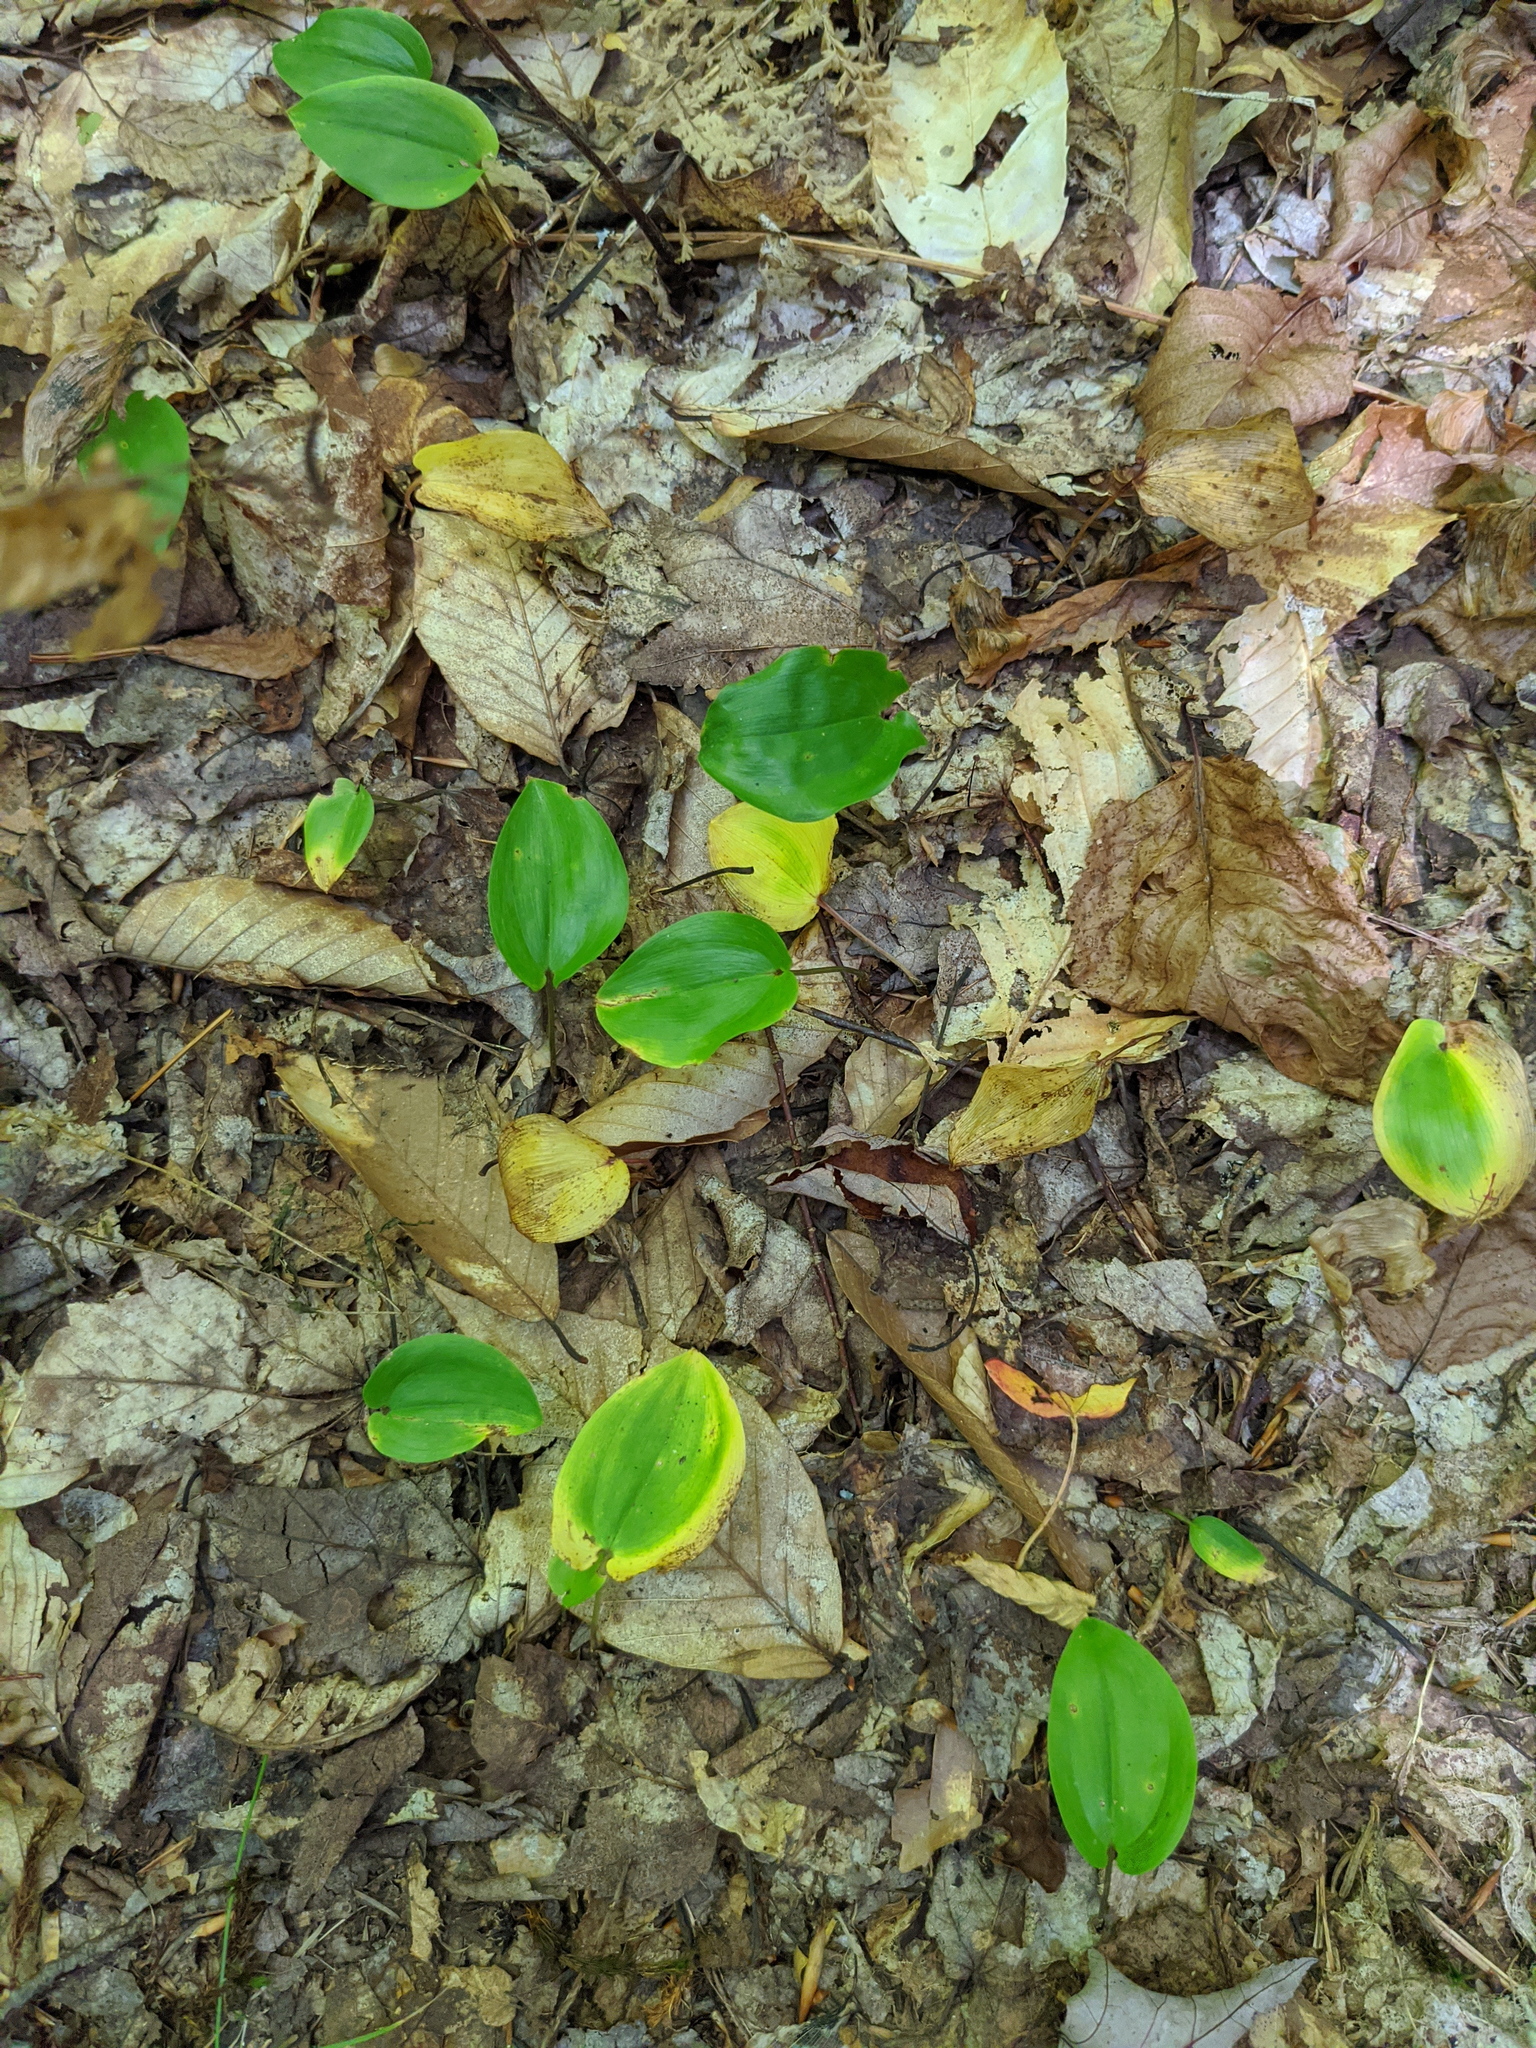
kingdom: Plantae
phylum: Tracheophyta
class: Liliopsida
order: Asparagales
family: Asparagaceae
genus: Maianthemum
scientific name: Maianthemum canadense
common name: False lily-of-the-valley
